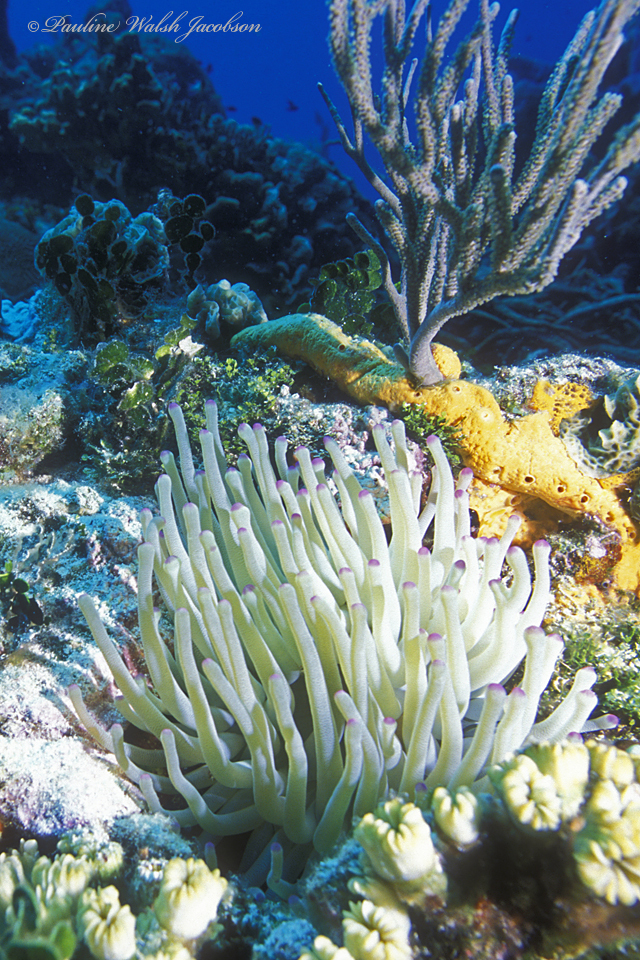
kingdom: Animalia
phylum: Cnidaria
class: Anthozoa
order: Actiniaria
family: Actiniidae
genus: Condylactis
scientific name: Condylactis gigantea
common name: Giant caribbean anemone
